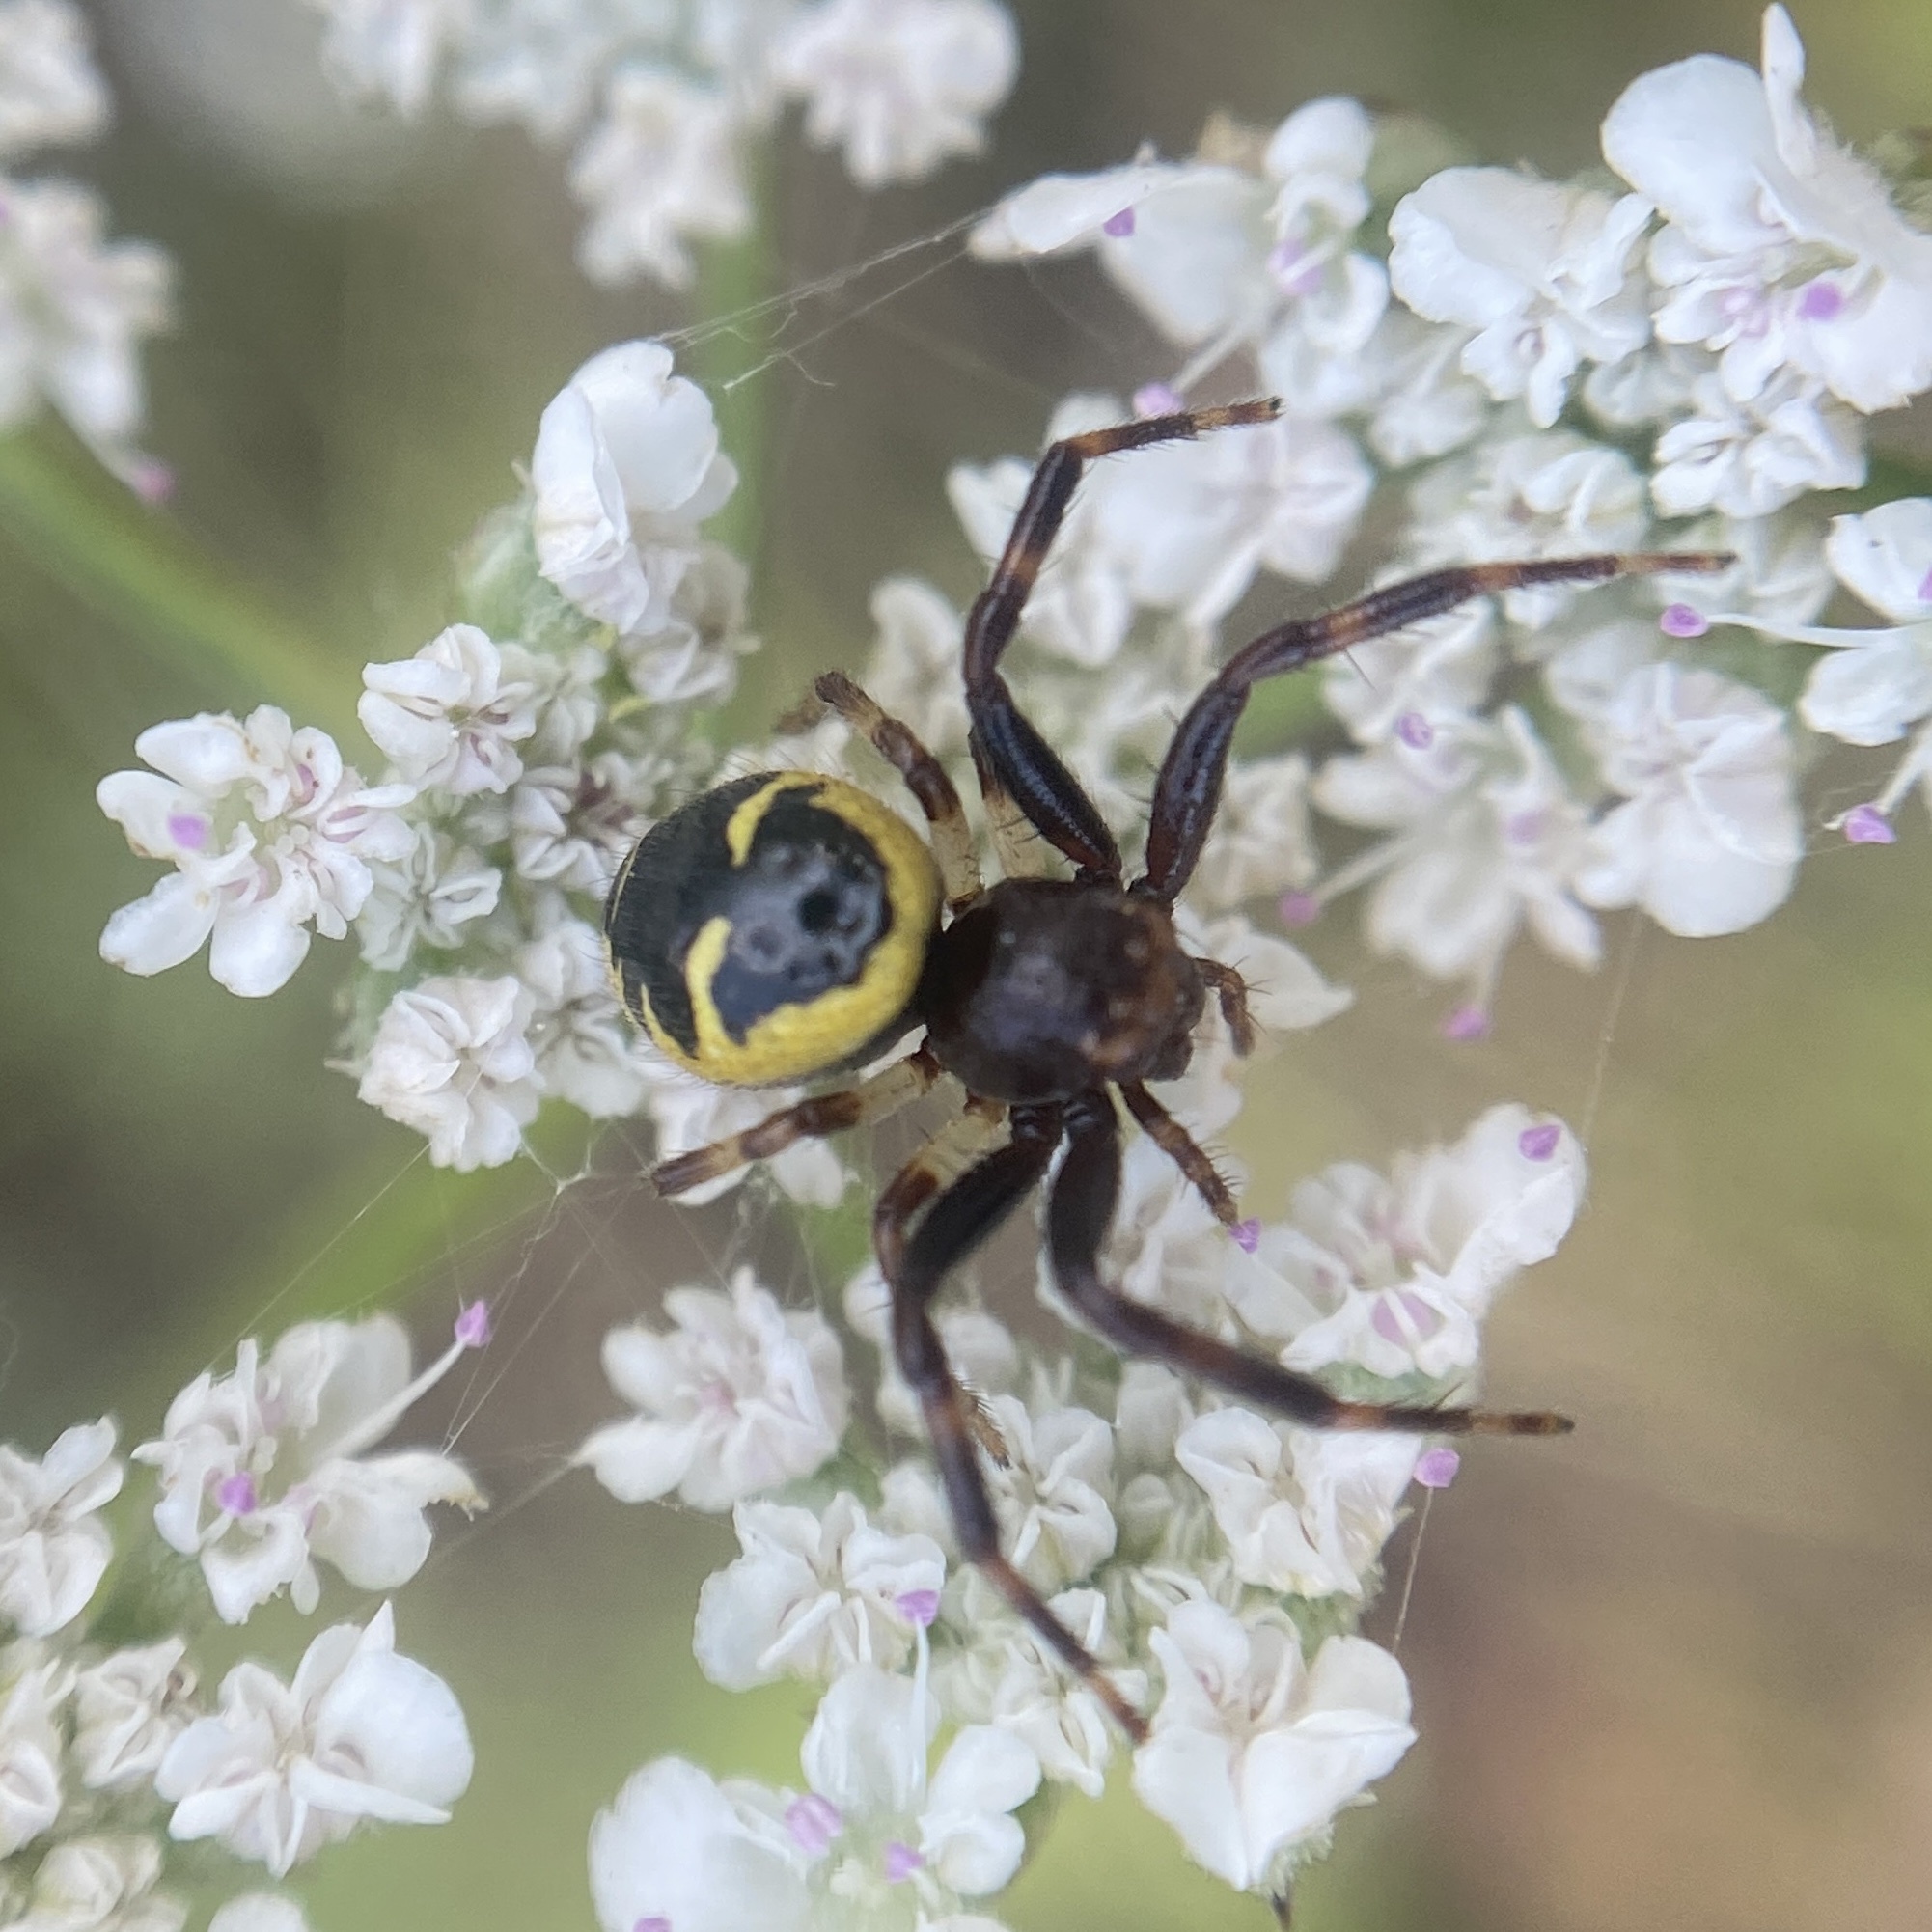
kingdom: Animalia
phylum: Arthropoda
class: Arachnida
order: Araneae
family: Thomisidae
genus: Synema
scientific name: Synema globosum
